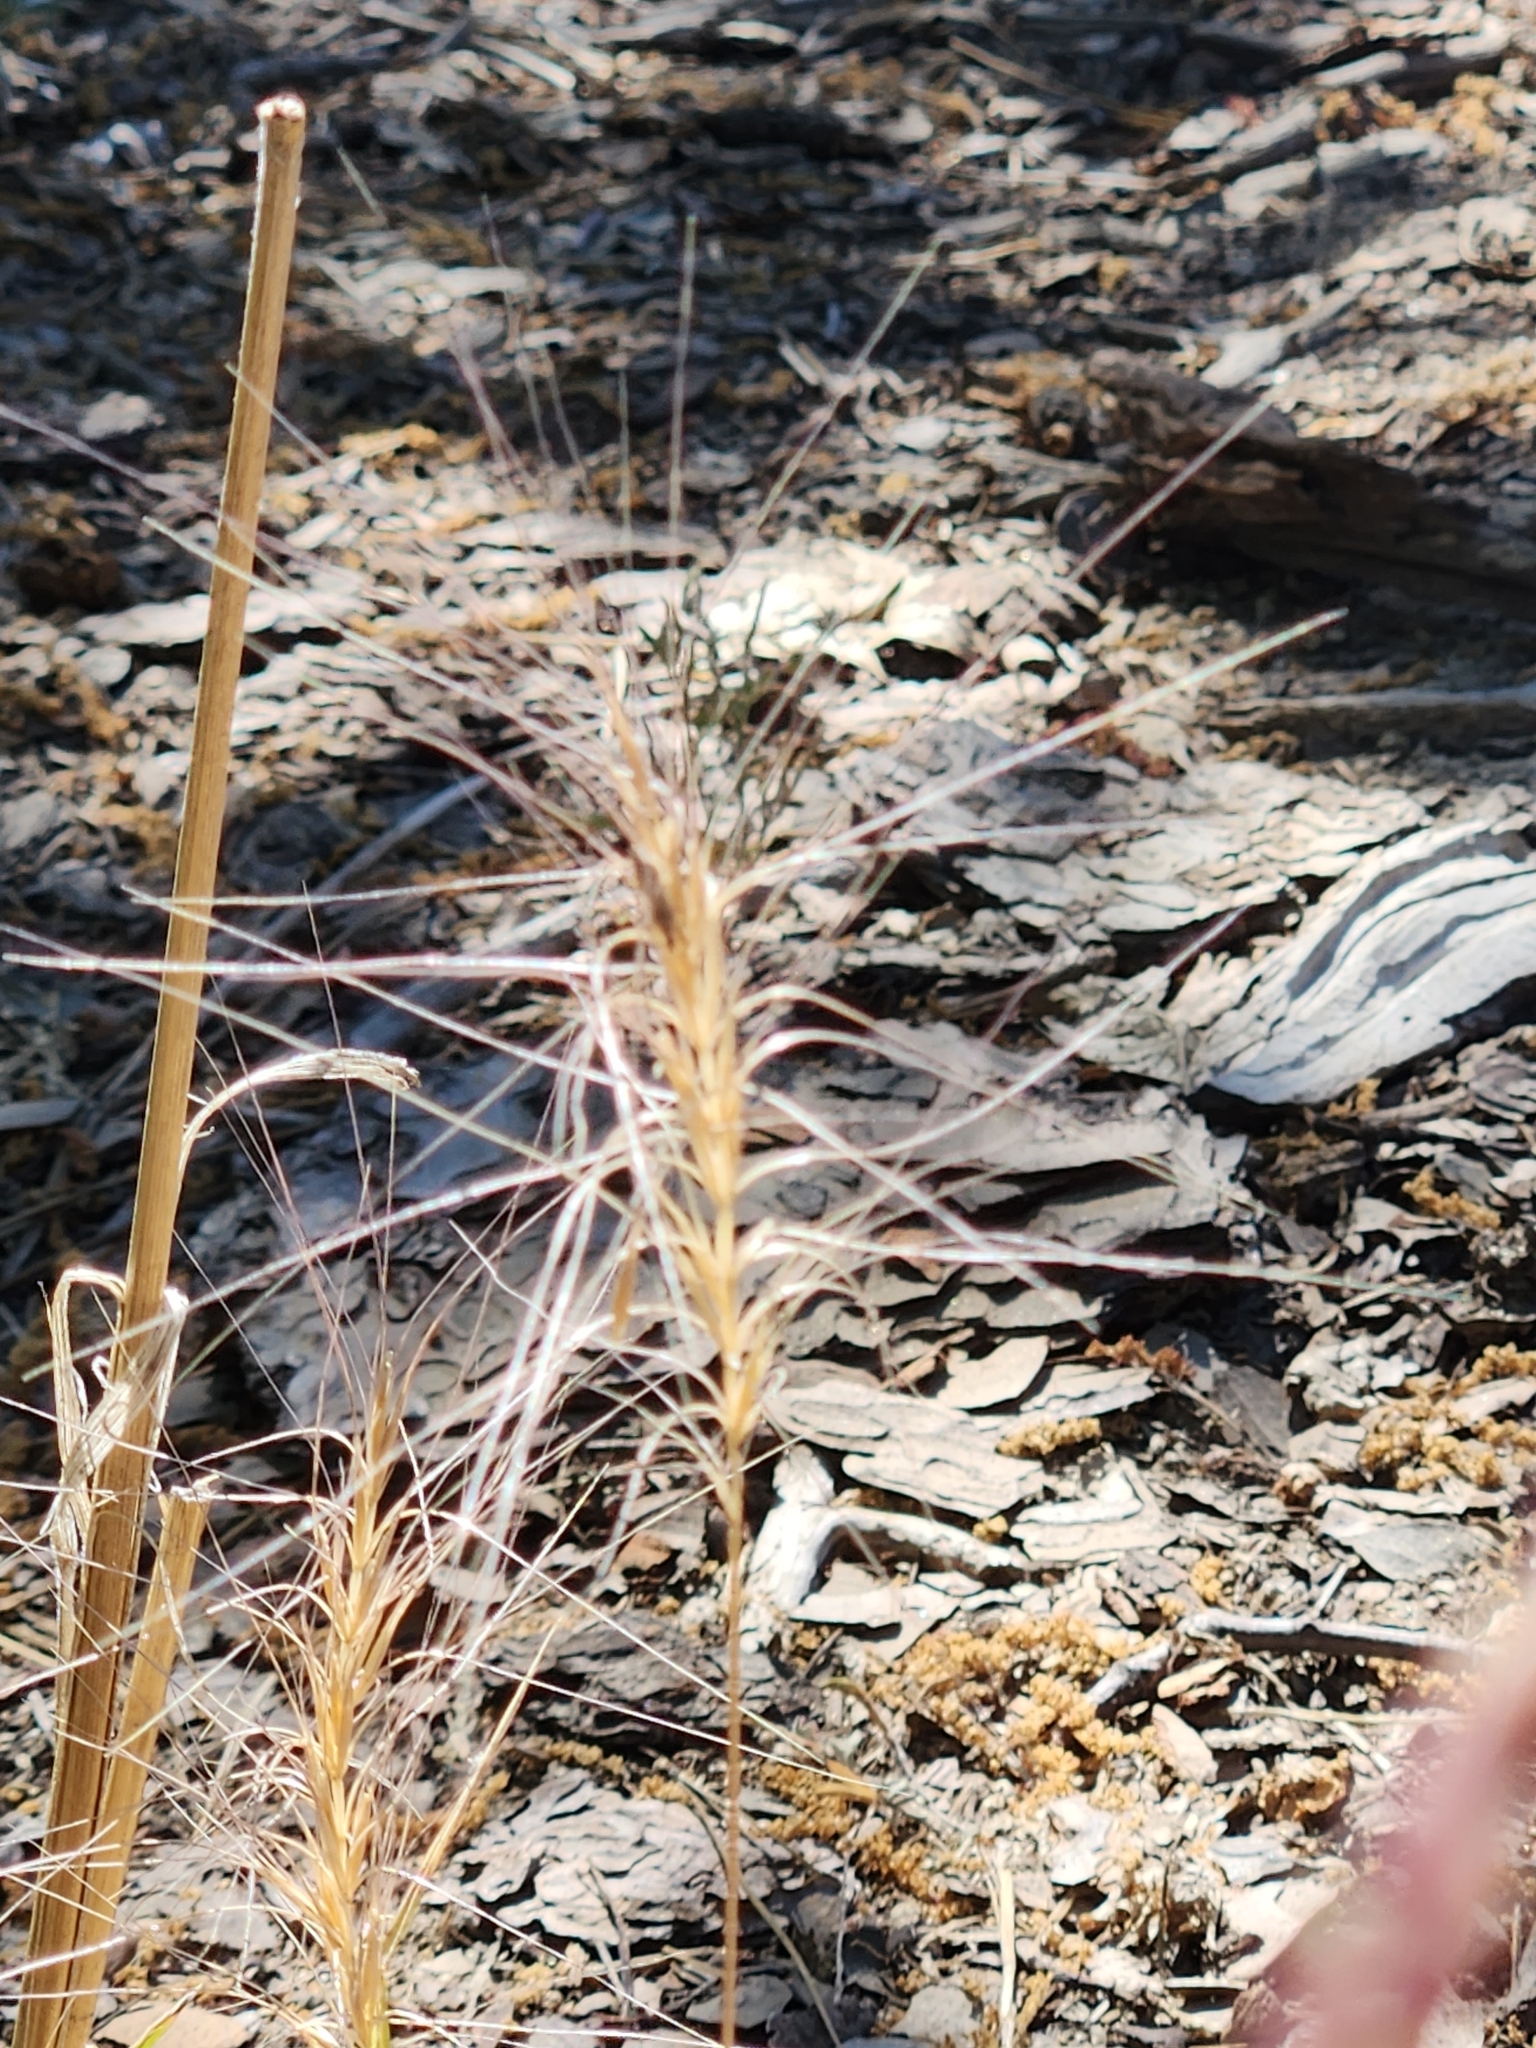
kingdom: Plantae
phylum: Tracheophyta
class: Liliopsida
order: Poales
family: Poaceae
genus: Elymus
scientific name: Elymus elymoides
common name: Bottlebrush squirreltail
